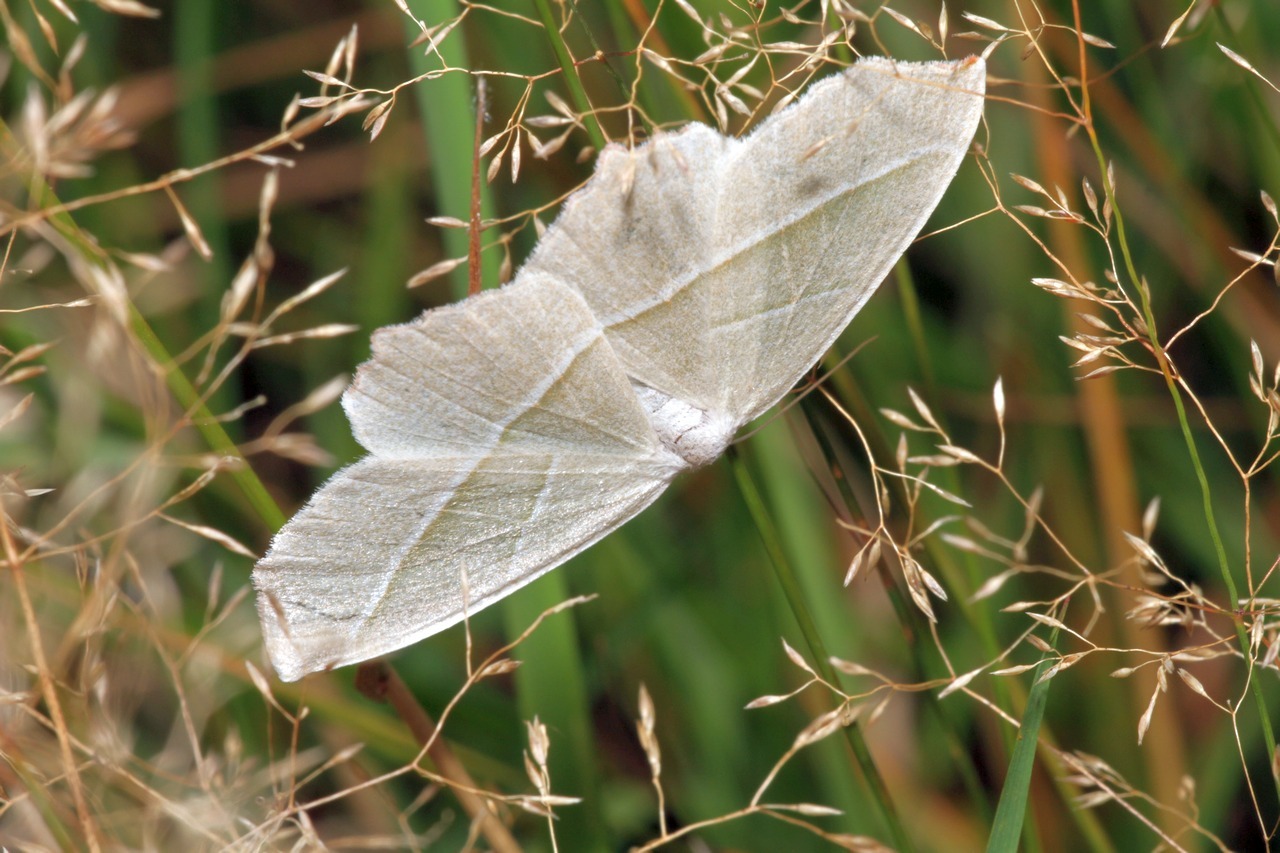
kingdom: Animalia
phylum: Arthropoda
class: Insecta
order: Lepidoptera
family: Geometridae
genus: Campaea
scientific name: Campaea margaritaria
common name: Light emerald
